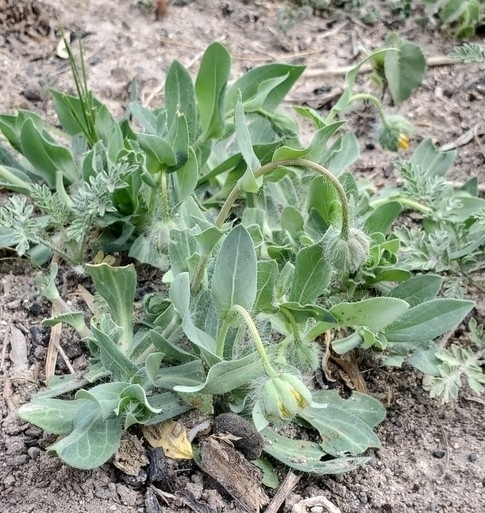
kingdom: Plantae
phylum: Tracheophyta
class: Magnoliopsida
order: Asterales
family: Asteraceae
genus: Amblyolepis
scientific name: Amblyolepis setigera
